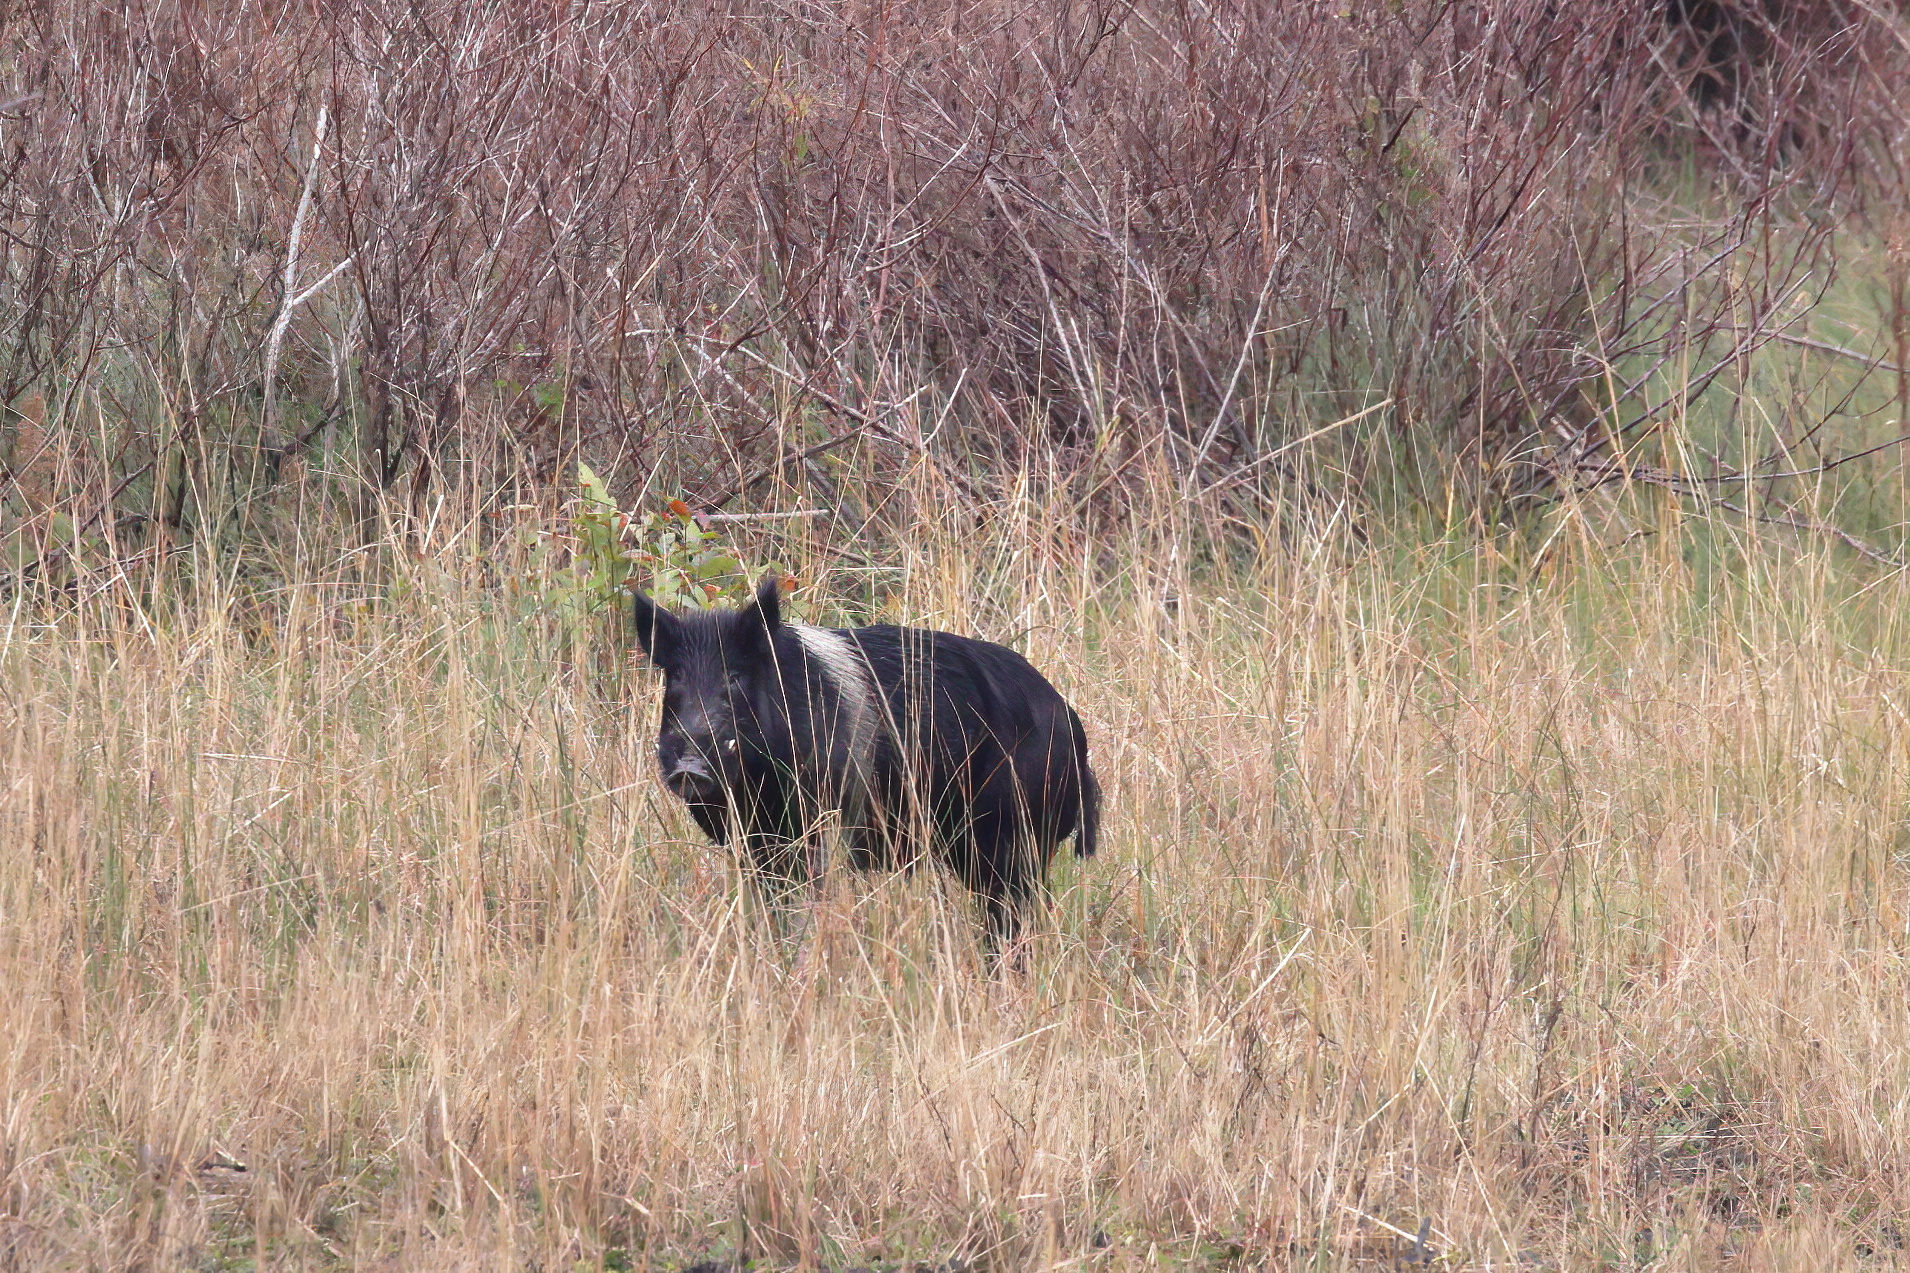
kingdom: Animalia
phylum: Chordata
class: Mammalia
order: Artiodactyla
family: Suidae
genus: Sus
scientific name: Sus scrofa
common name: Wild boar
